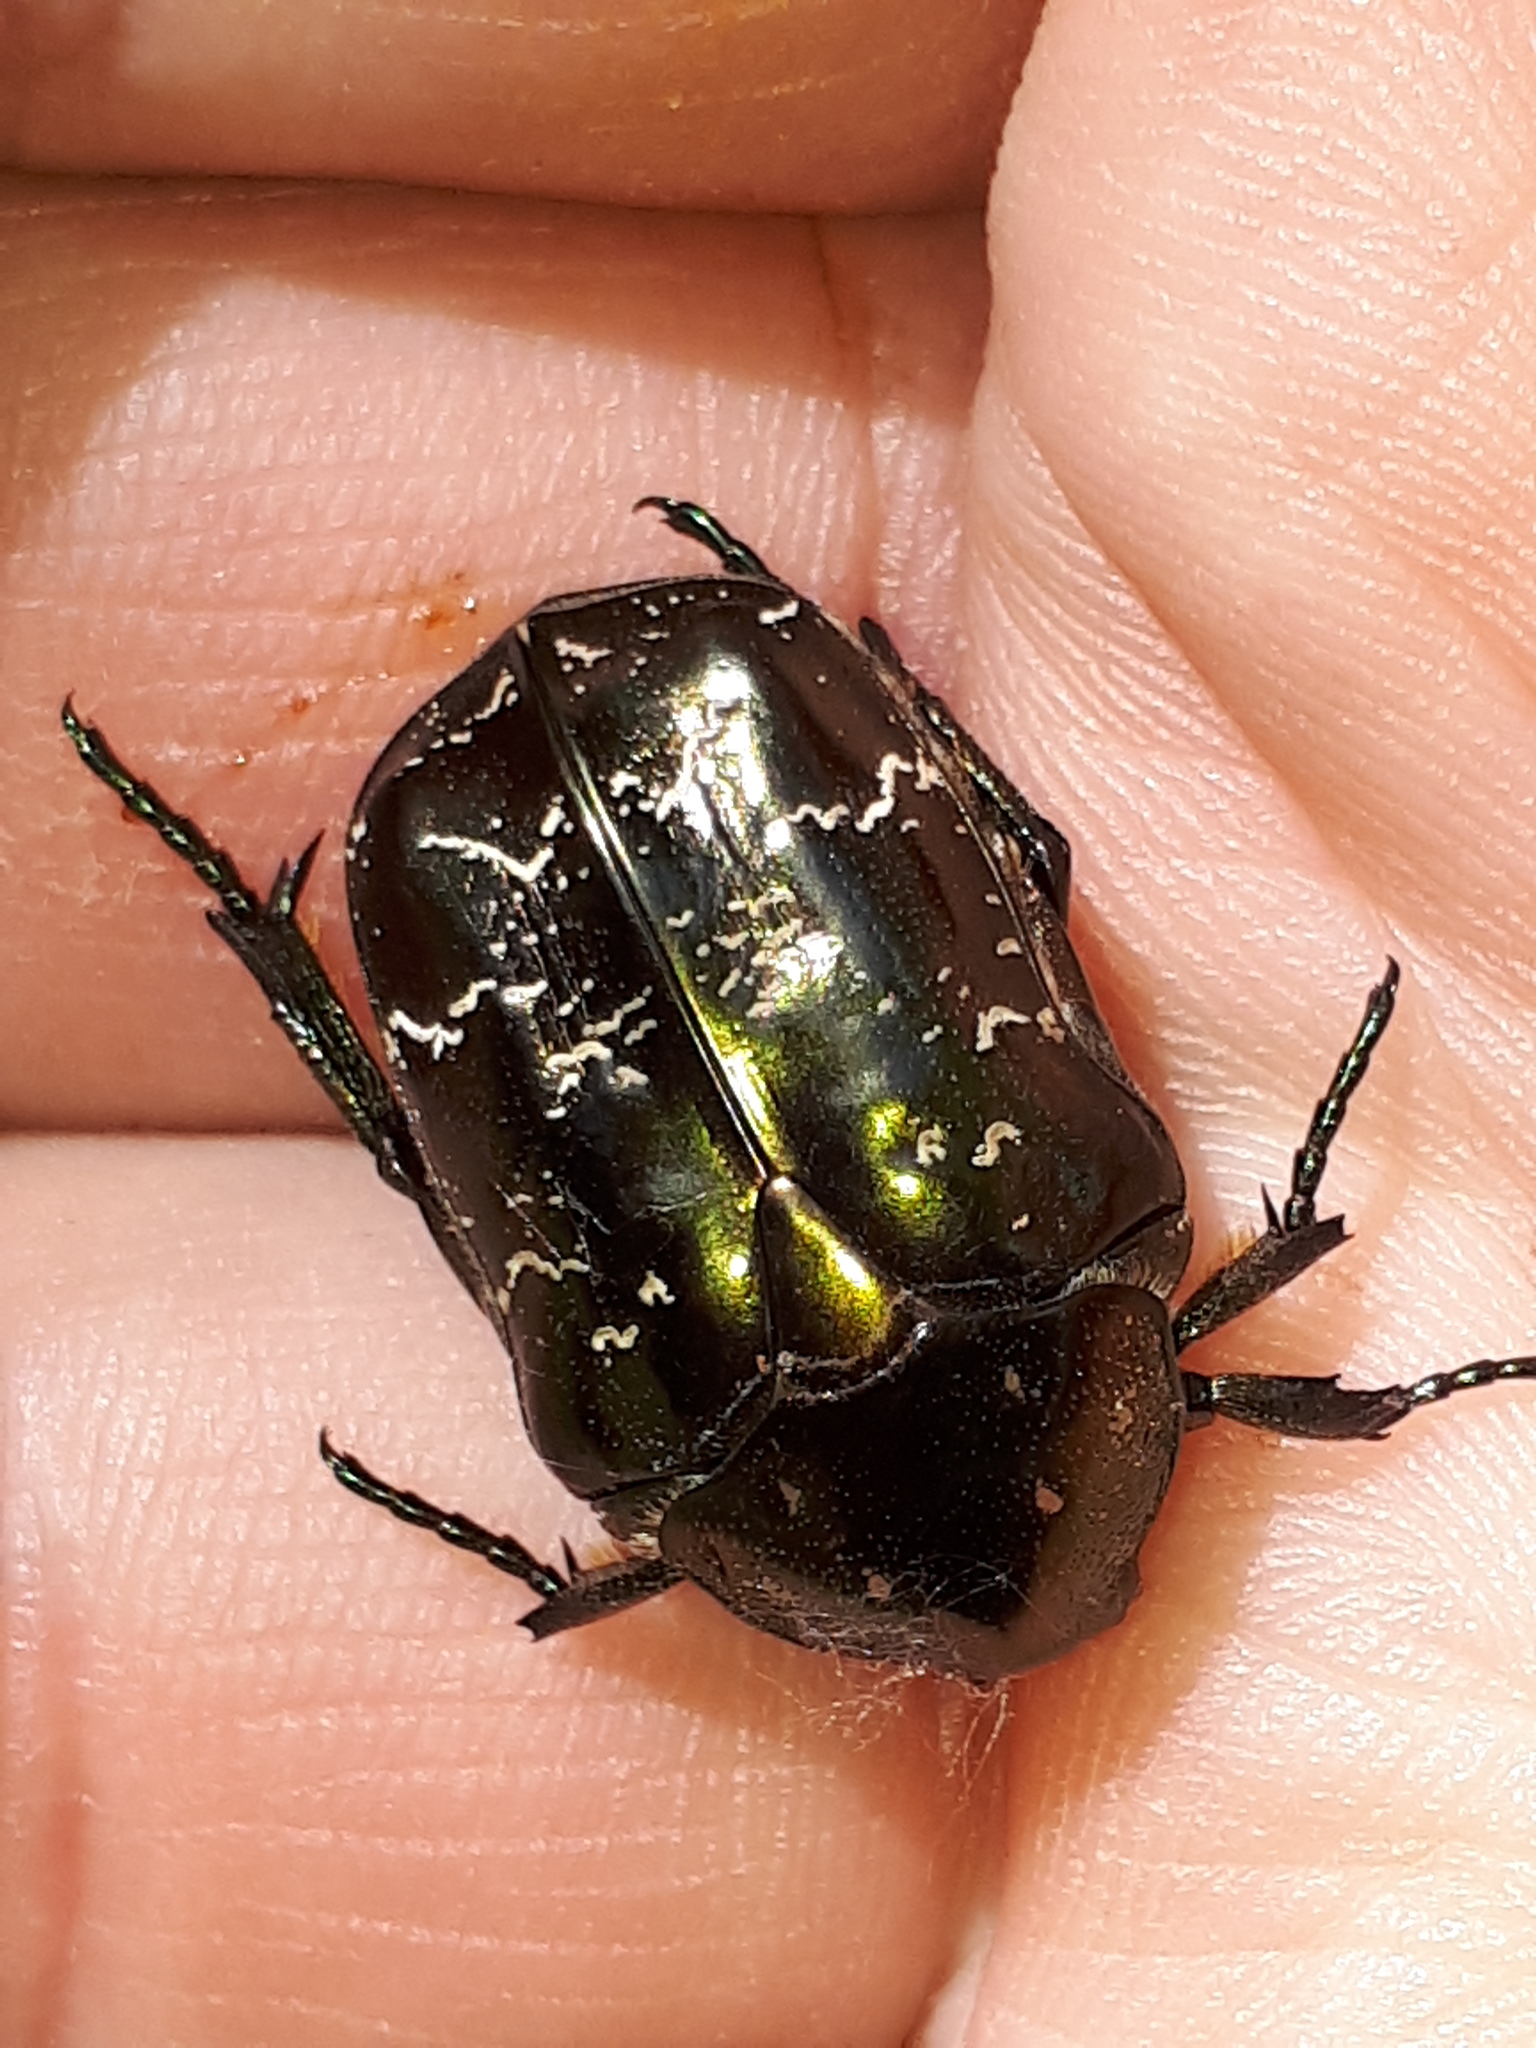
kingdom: Animalia
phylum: Arthropoda
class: Insecta
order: Coleoptera
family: Scarabaeidae
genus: Protaetia
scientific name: Protaetia marmorata
